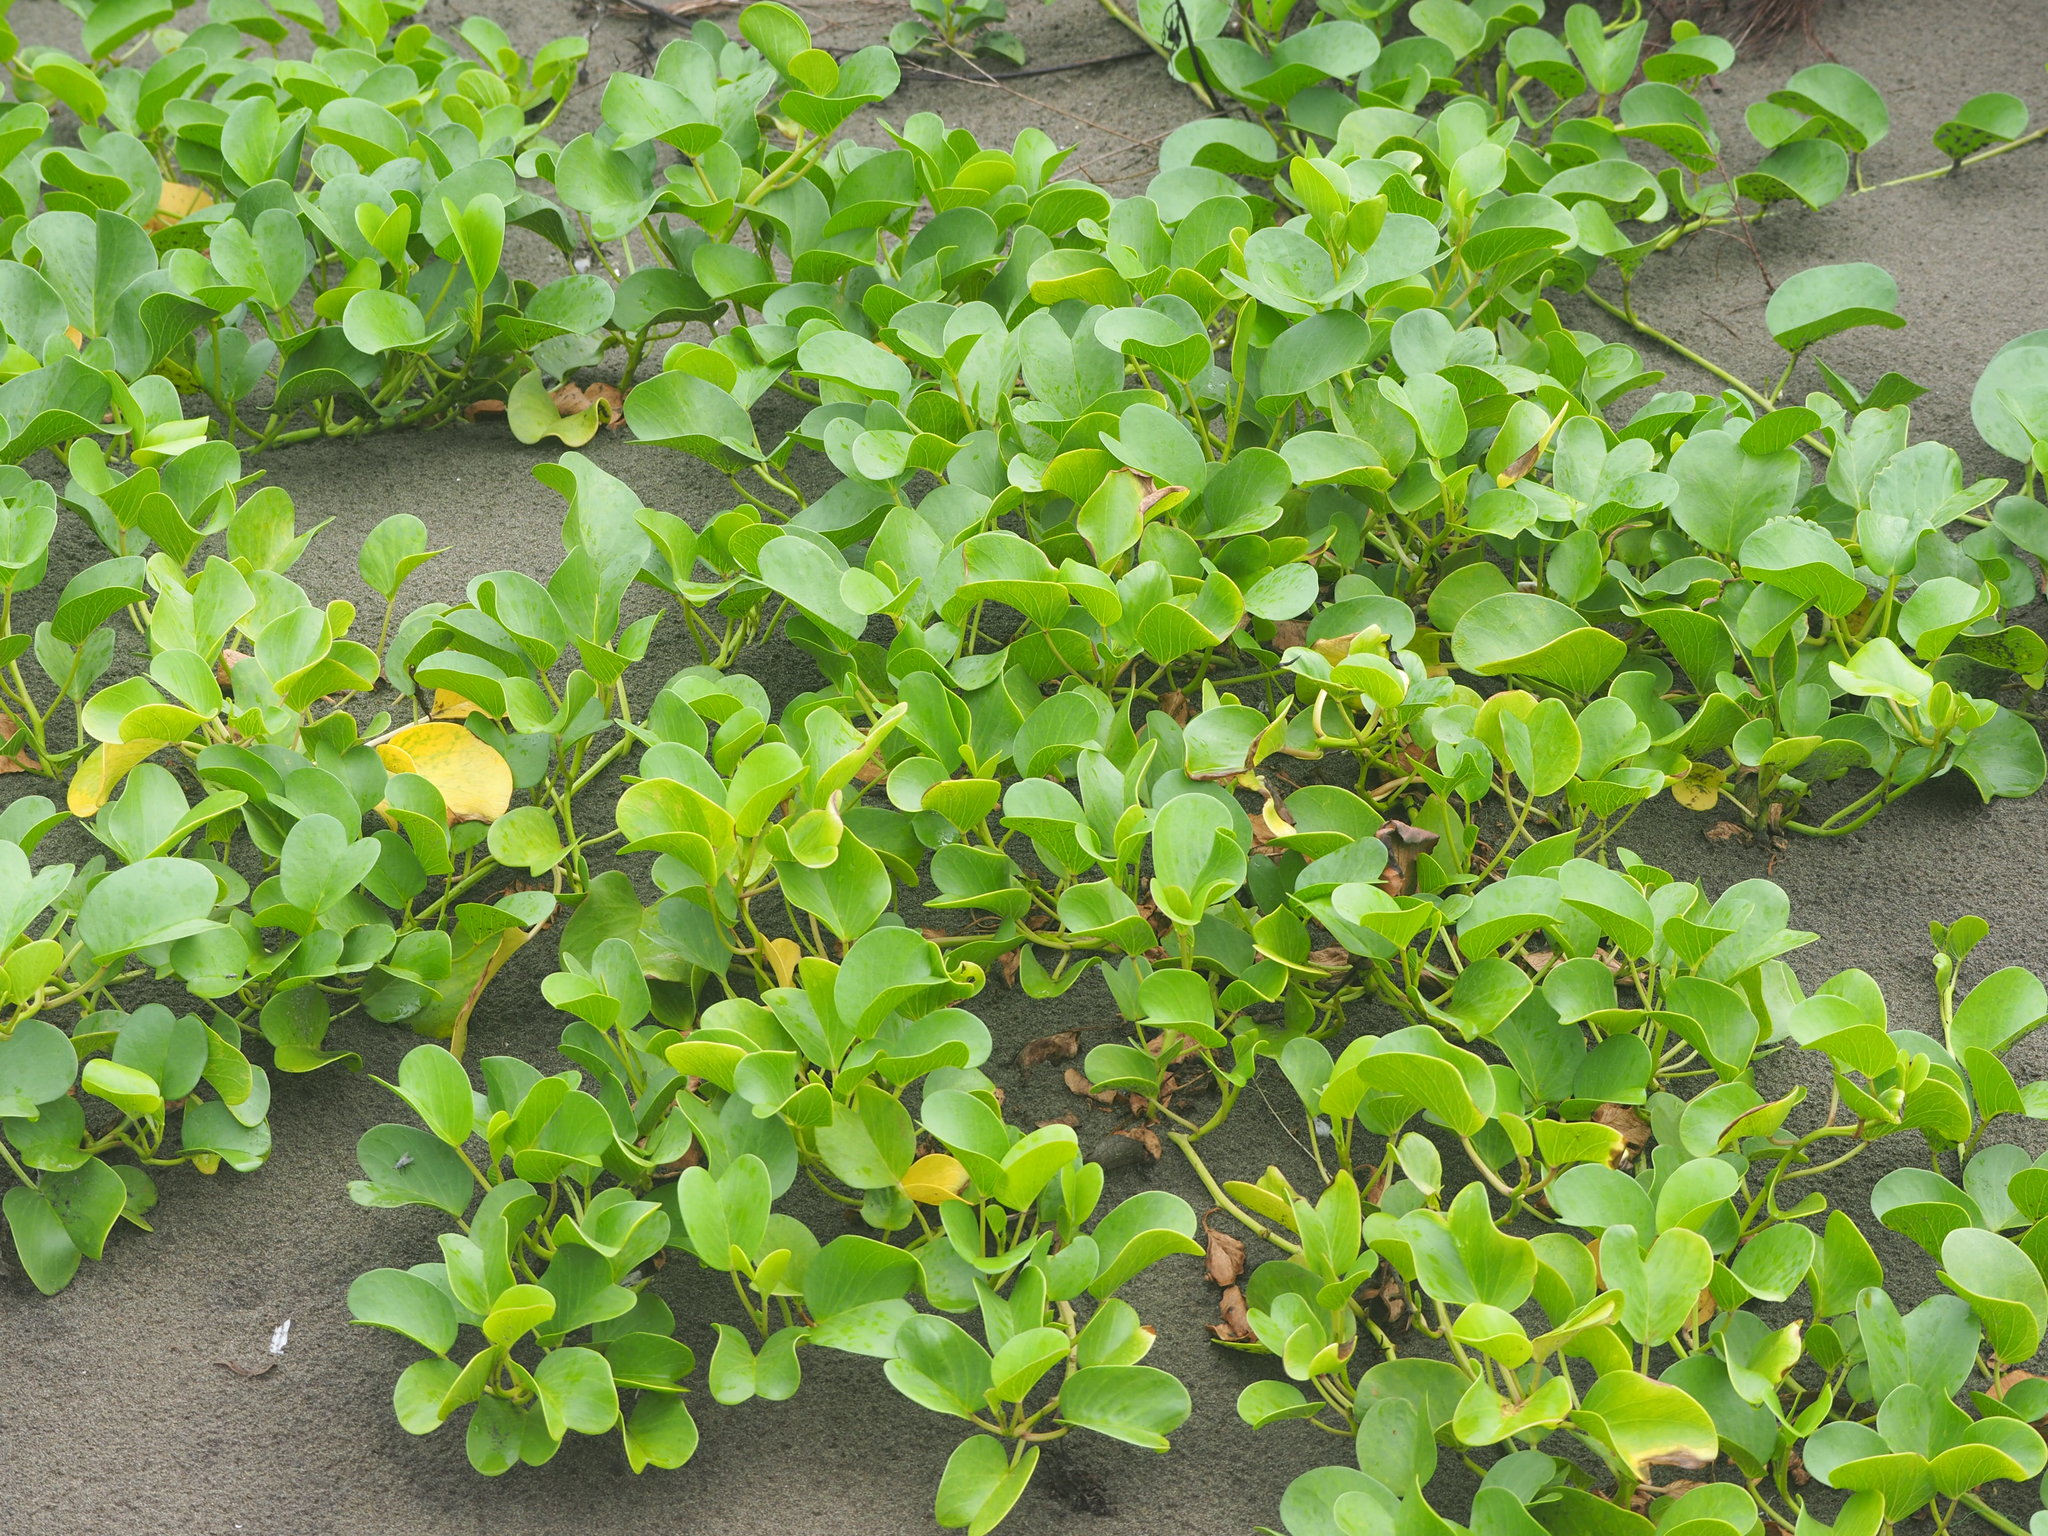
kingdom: Plantae
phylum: Tracheophyta
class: Magnoliopsida
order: Solanales
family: Convolvulaceae
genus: Ipomoea
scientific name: Ipomoea pes-caprae
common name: Beach morning glory
